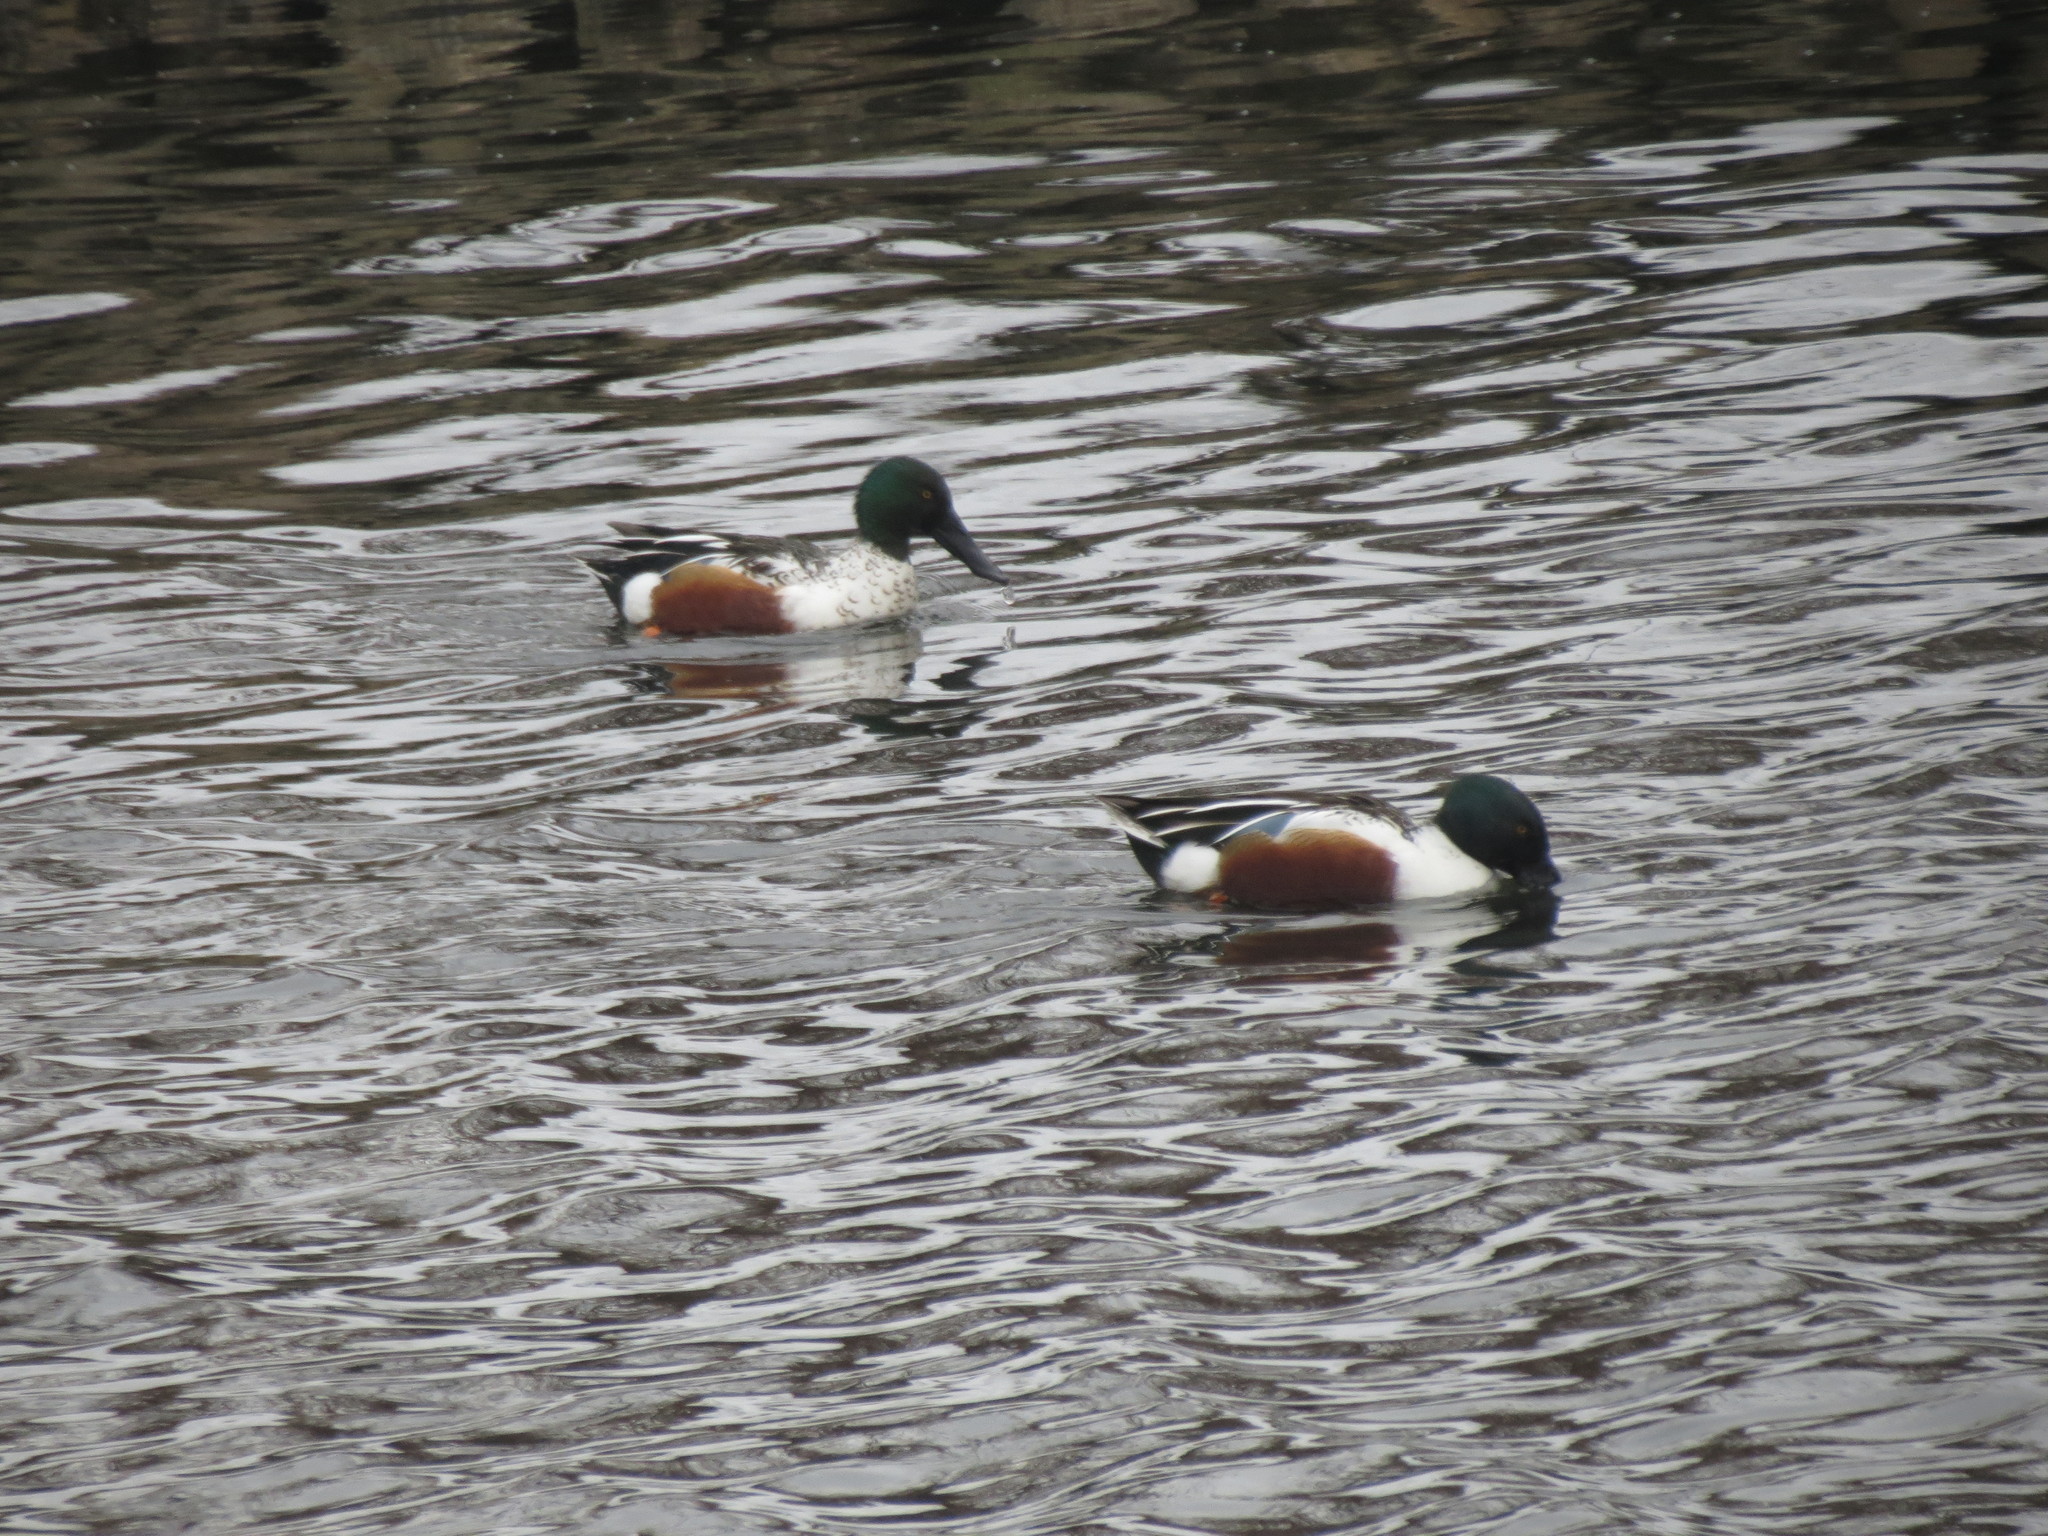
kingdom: Animalia
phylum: Chordata
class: Aves
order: Anseriformes
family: Anatidae
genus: Spatula
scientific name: Spatula clypeata
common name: Northern shoveler
